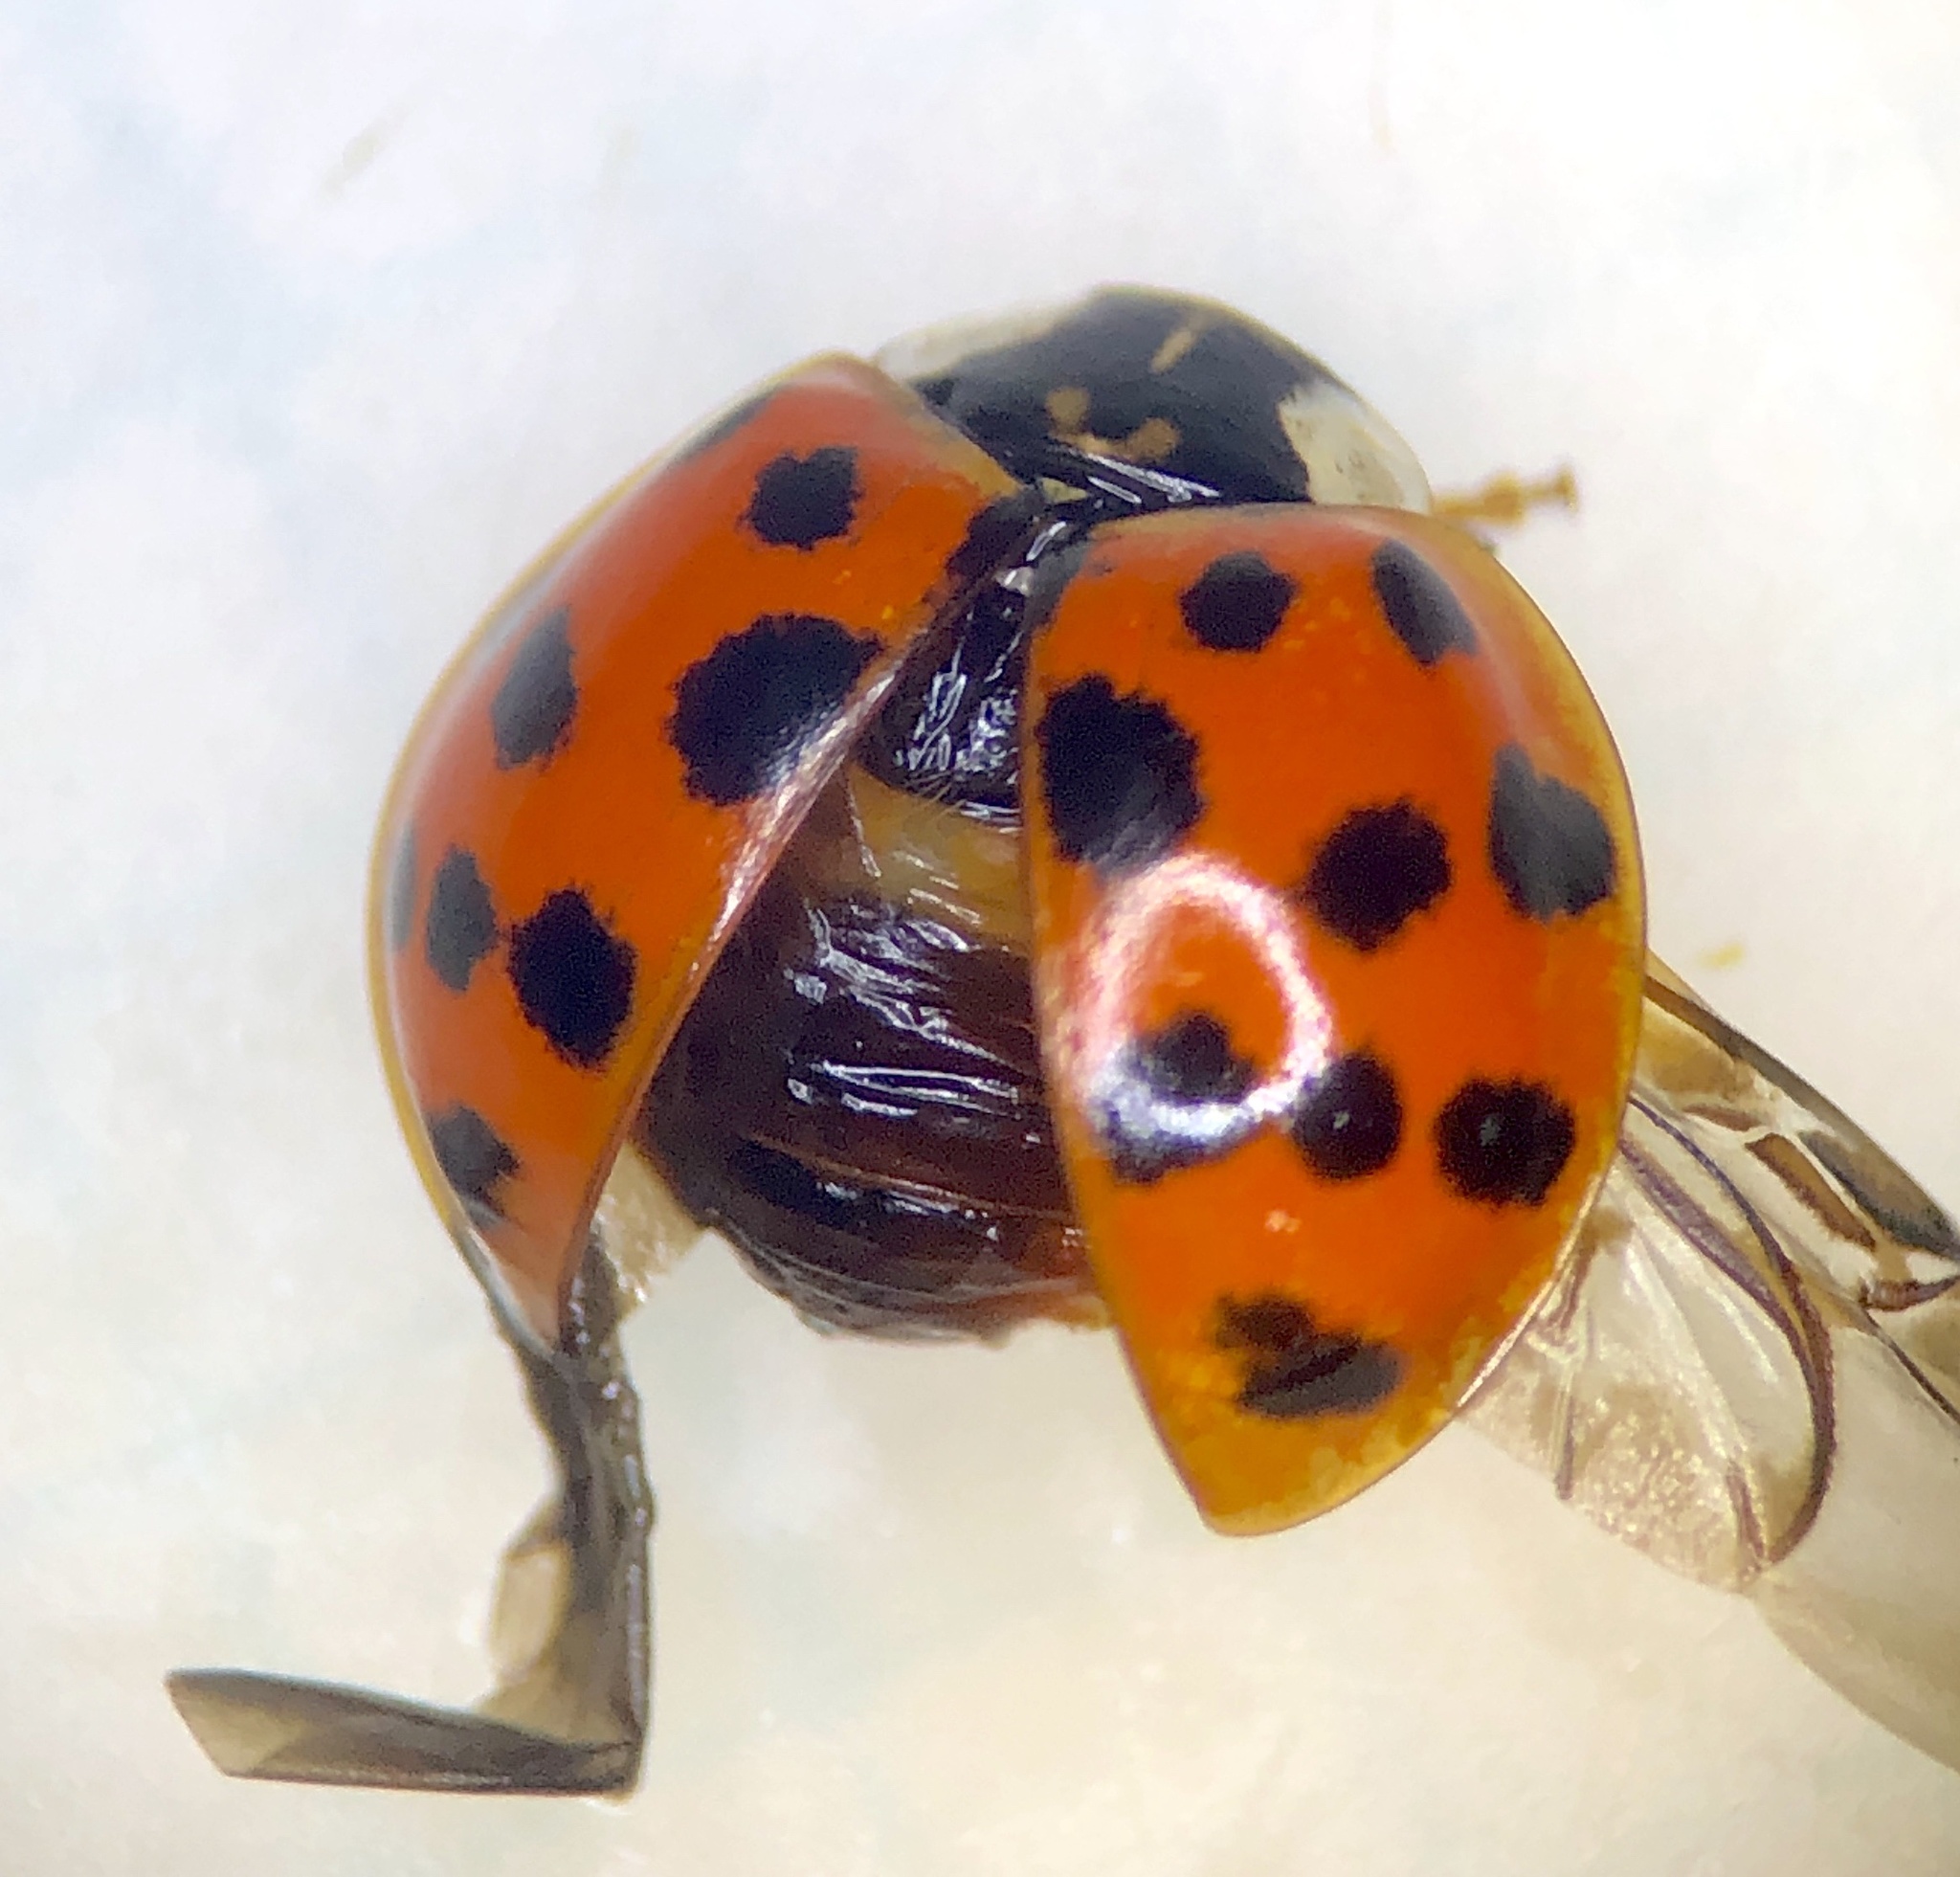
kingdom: Animalia
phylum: Arthropoda
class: Insecta
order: Coleoptera
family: Coccinellidae
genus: Harmonia
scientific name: Harmonia axyridis
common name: Harlequin ladybird
